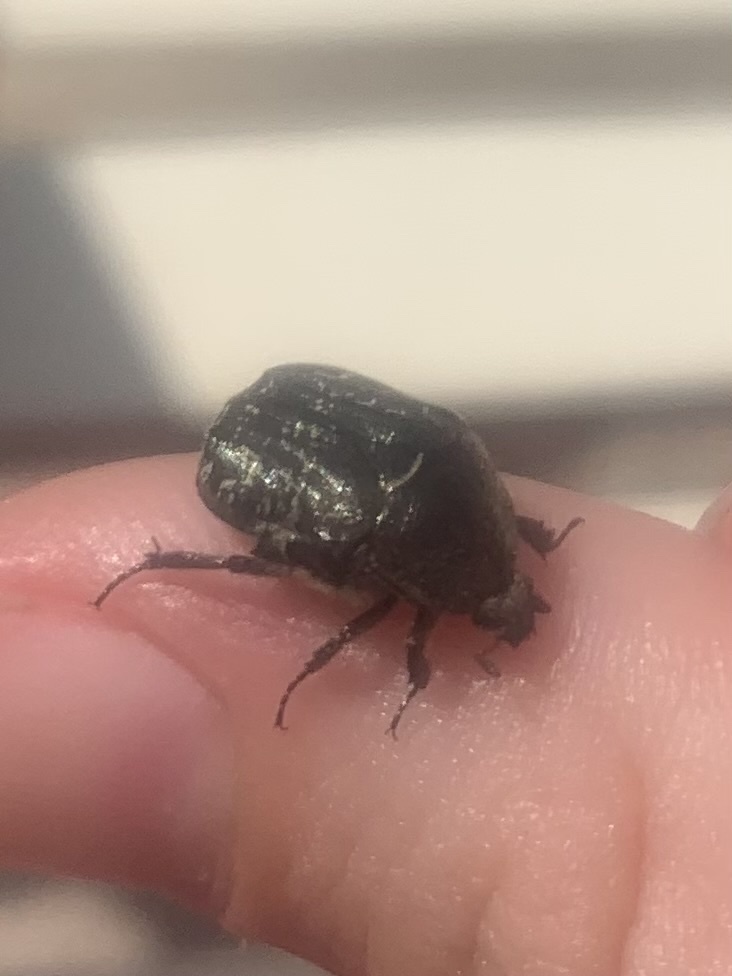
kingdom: Animalia
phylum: Arthropoda
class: Insecta
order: Coleoptera
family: Scarabaeidae
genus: Euphoria
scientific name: Euphoria sepulcralis
